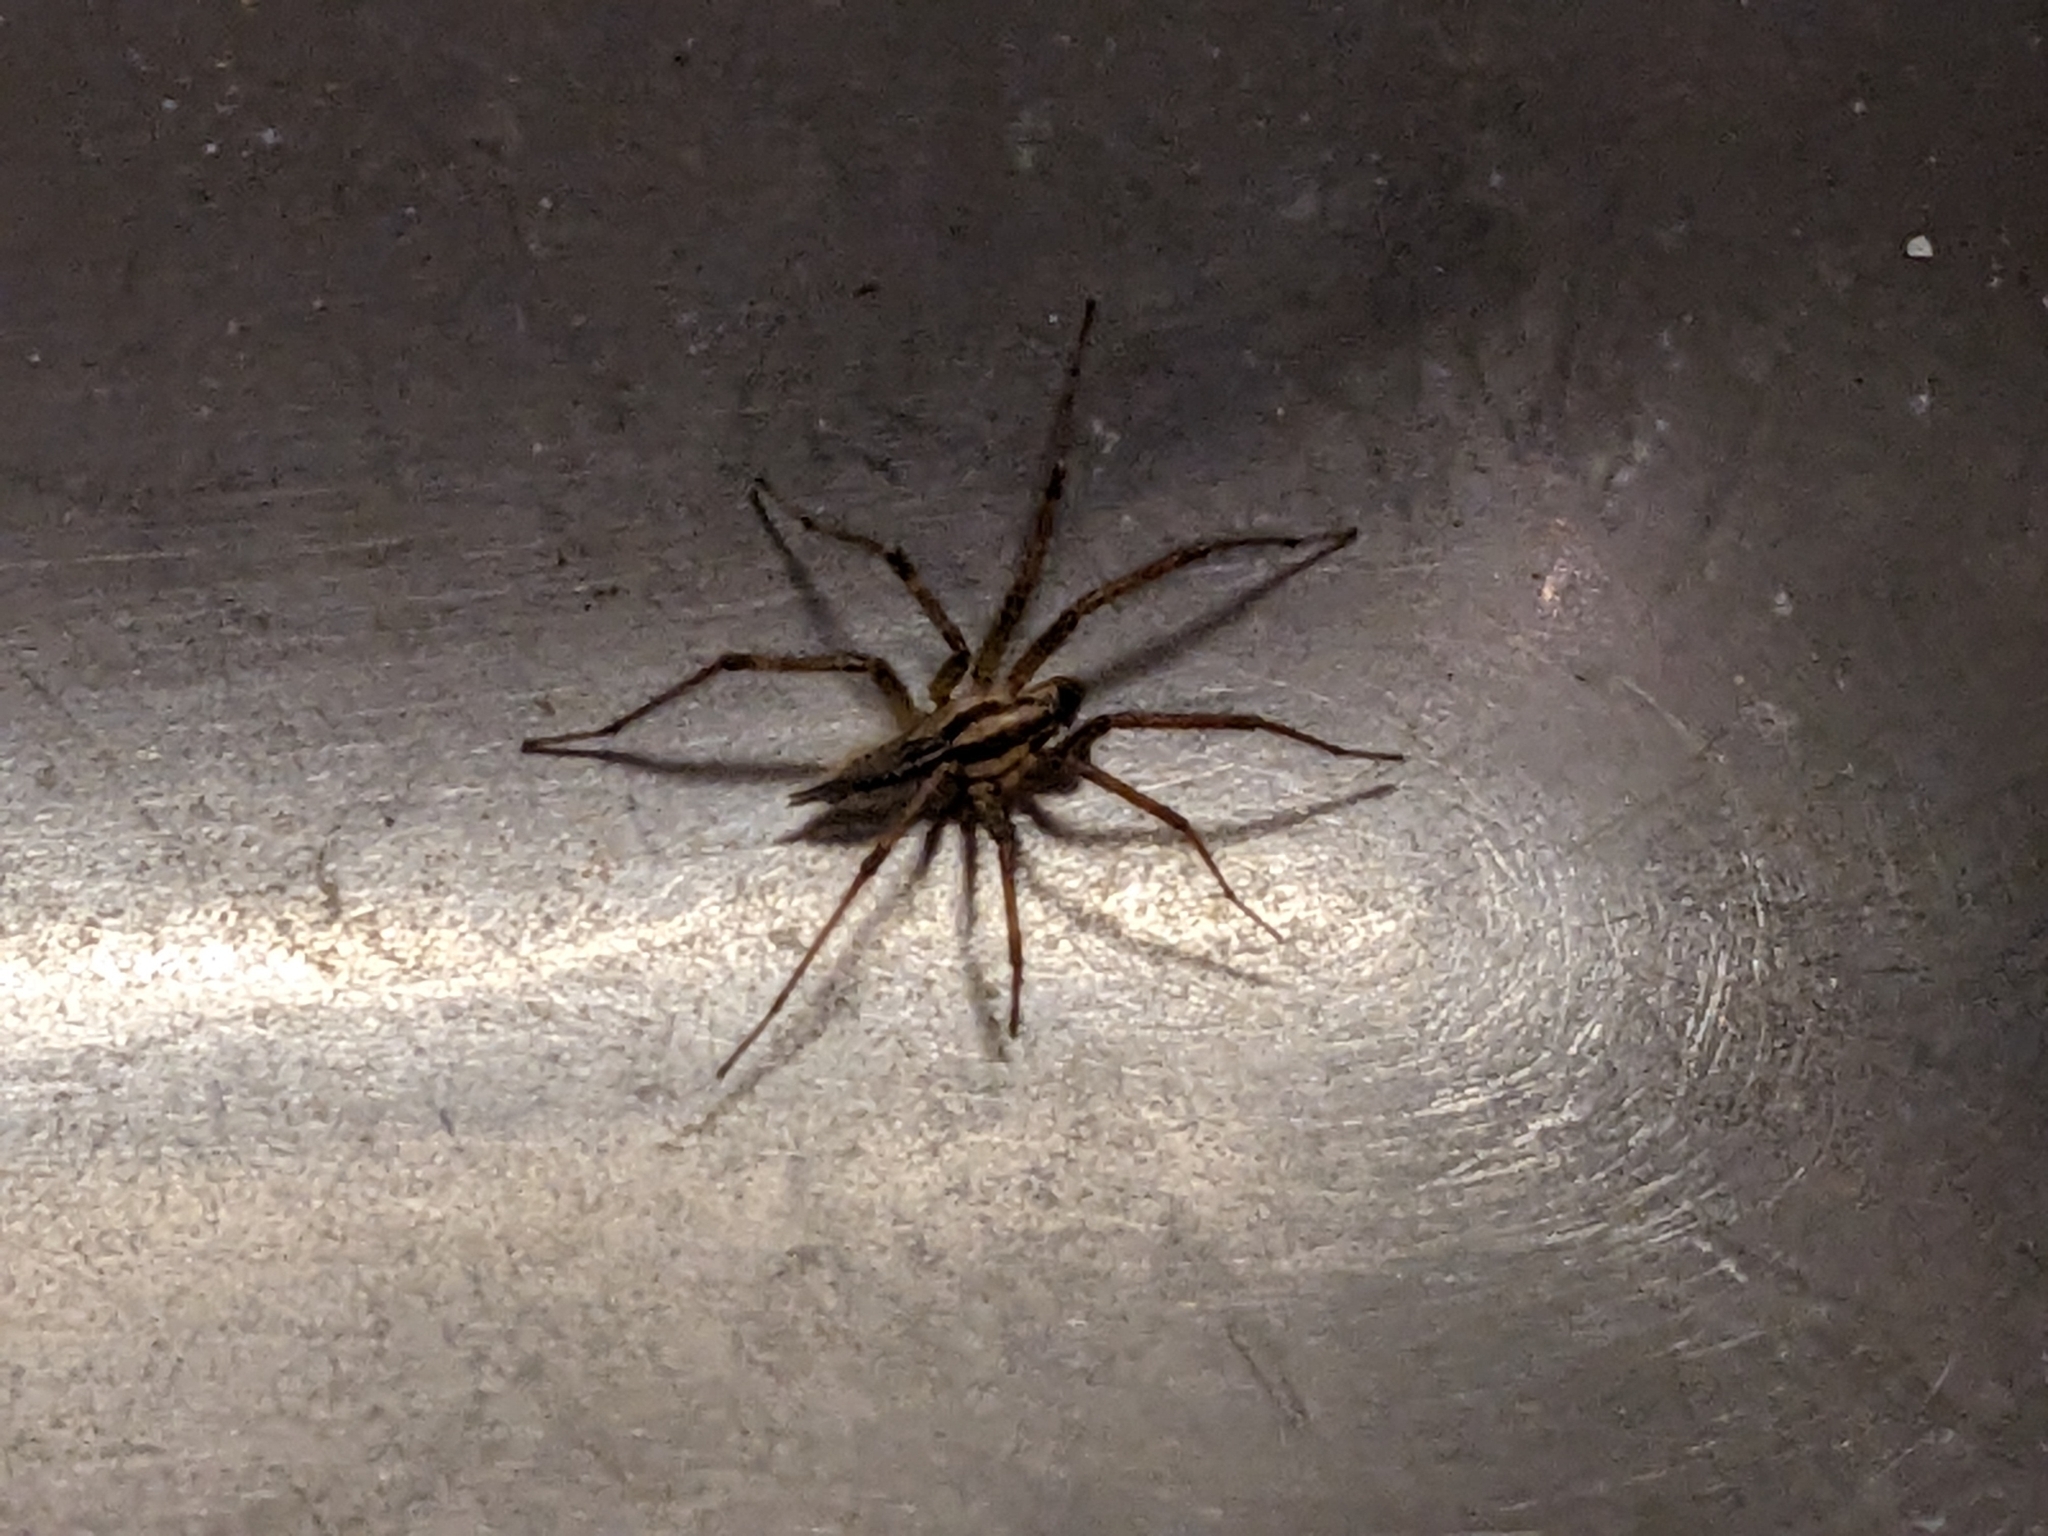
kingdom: Animalia
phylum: Arthropoda
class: Arachnida
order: Araneae
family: Agelenidae
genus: Agelenopsis
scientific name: Agelenopsis
